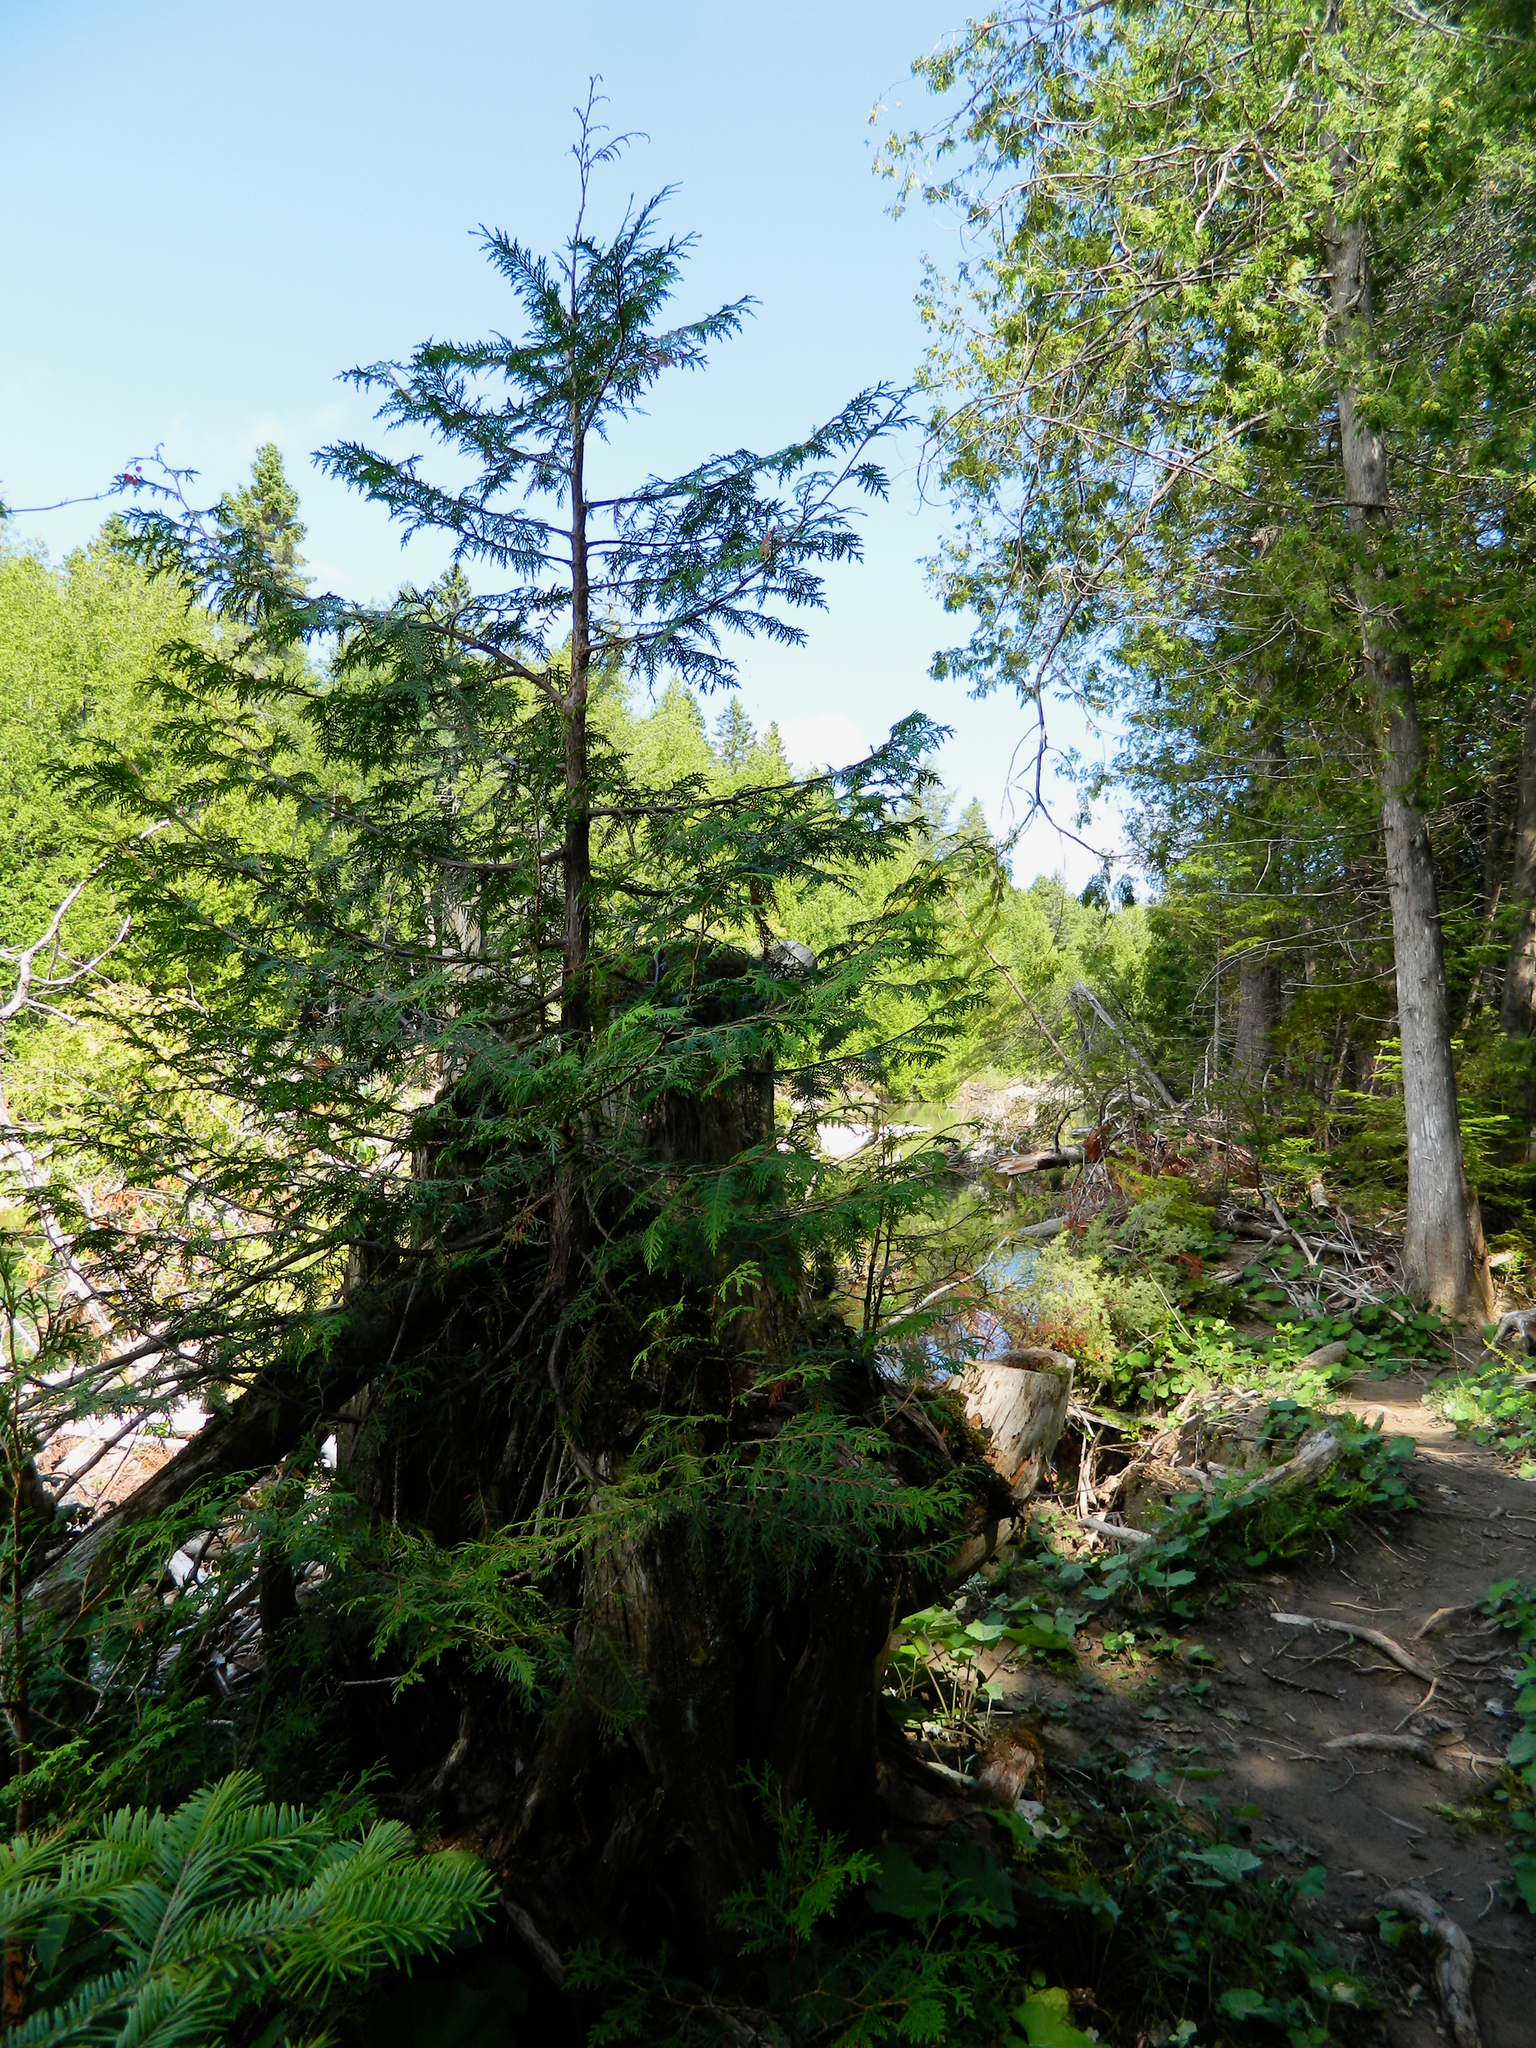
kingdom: Plantae
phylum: Tracheophyta
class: Pinopsida
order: Pinales
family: Cupressaceae
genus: Thuja
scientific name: Thuja occidentalis
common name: Northern white-cedar
